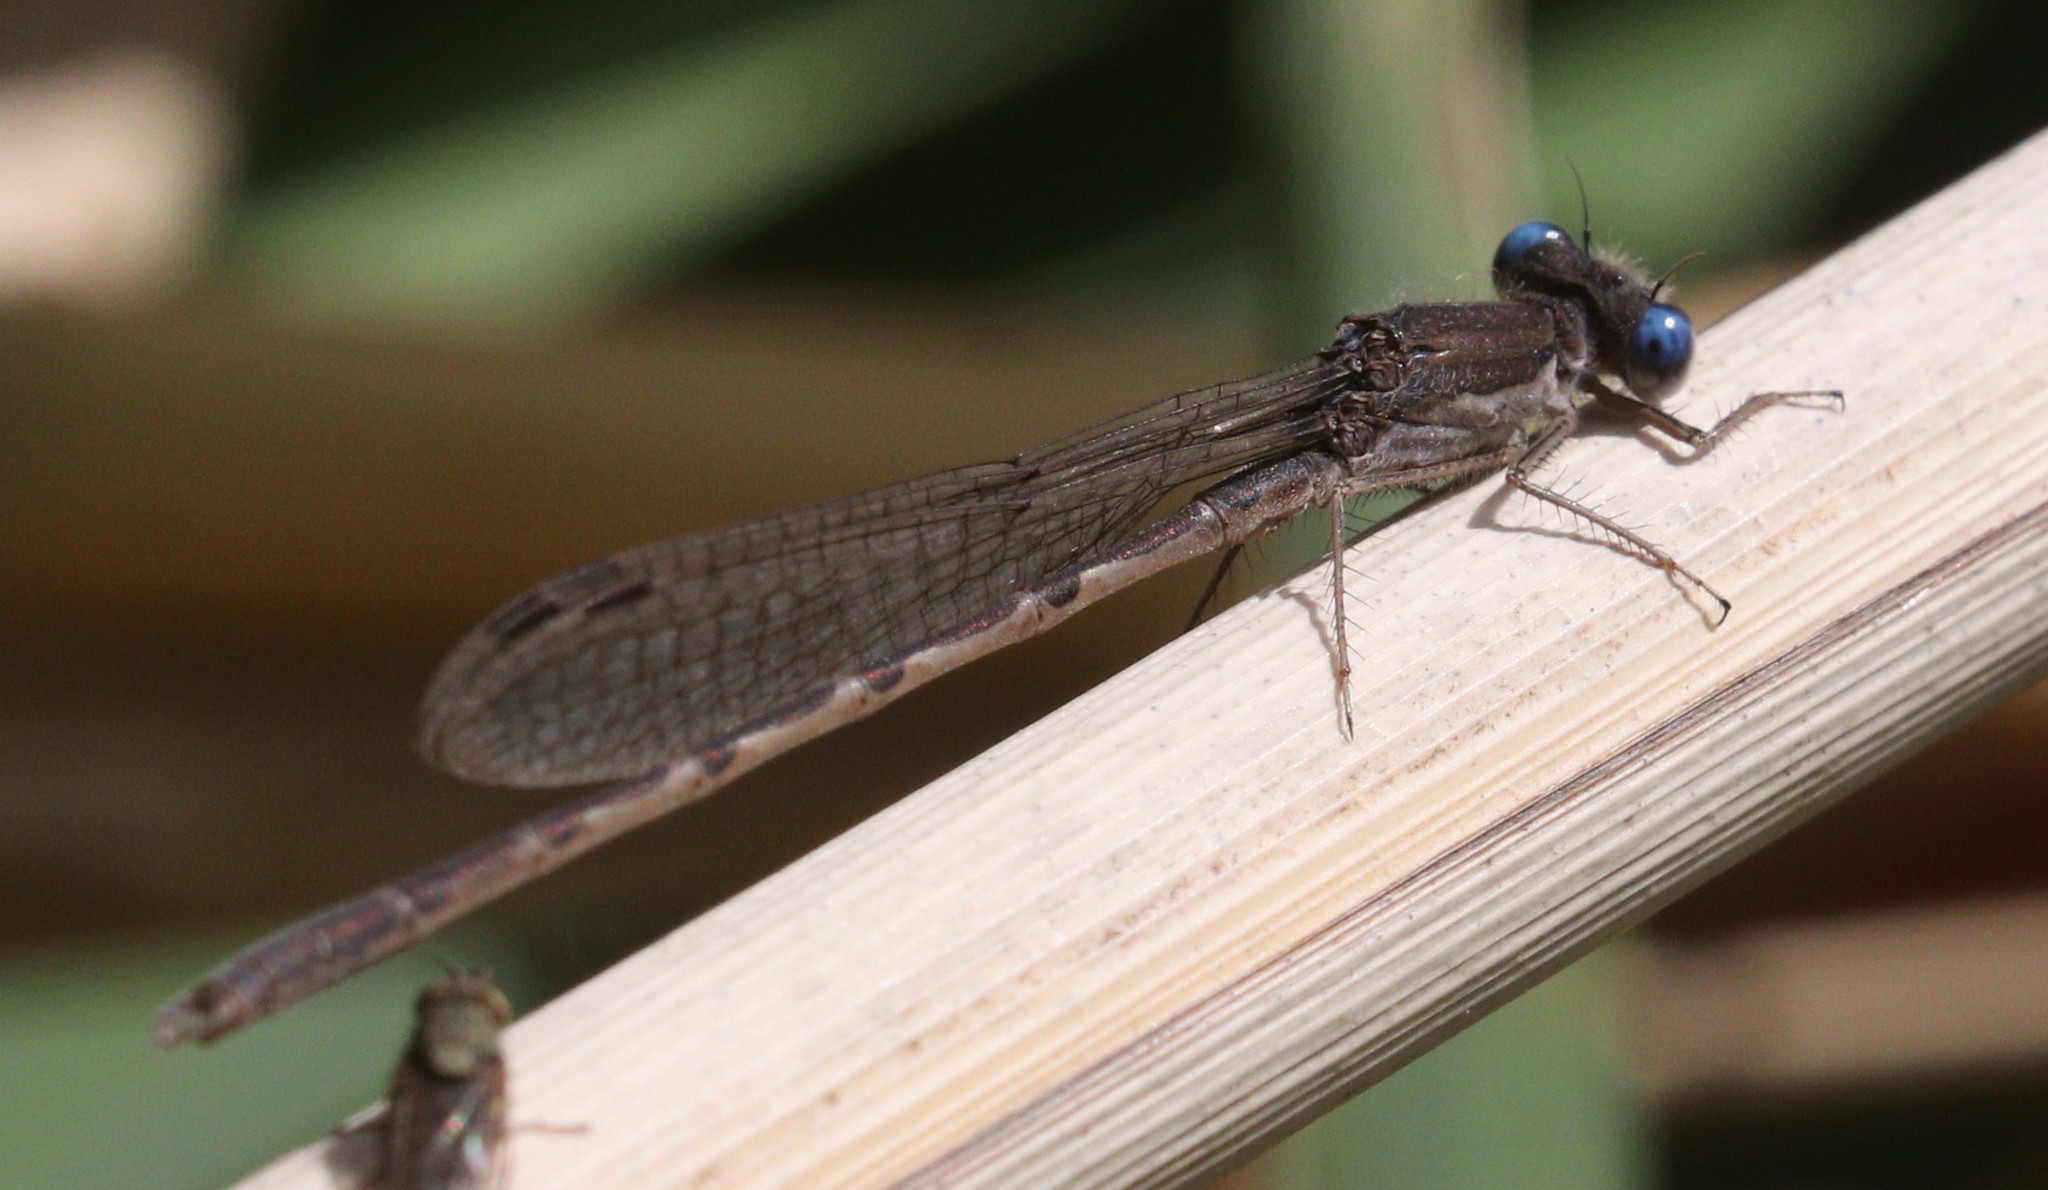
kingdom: Animalia
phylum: Arthropoda
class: Insecta
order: Odonata
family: Lestidae
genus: Sympecma
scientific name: Sympecma fusca
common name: Common winter damsel
